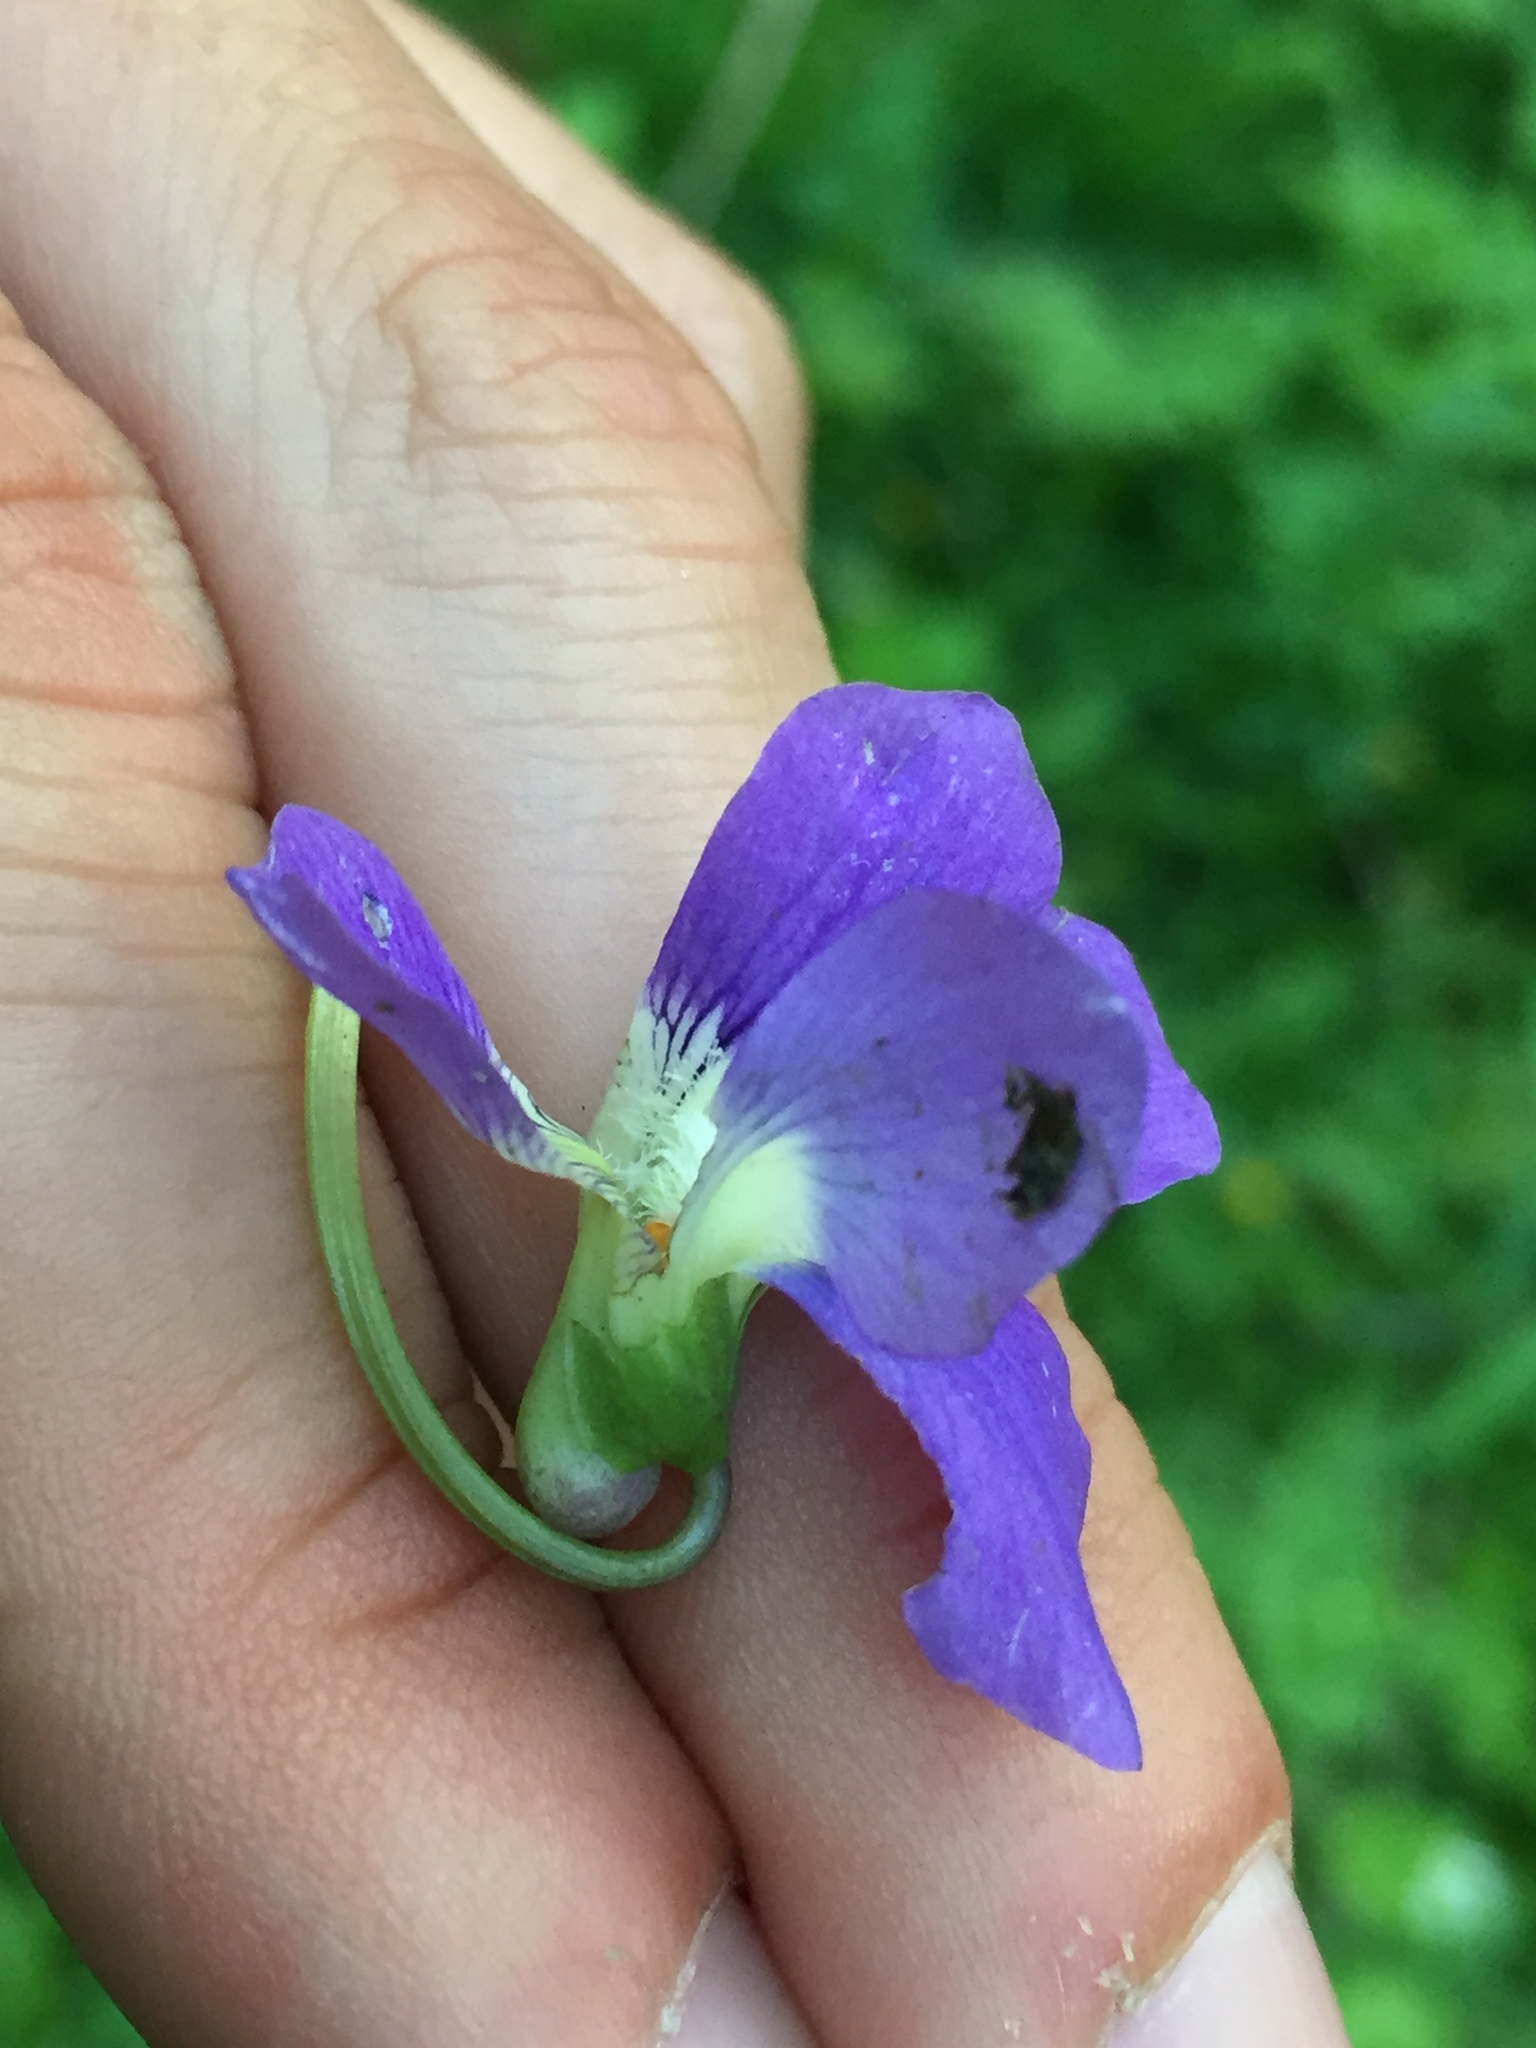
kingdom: Plantae
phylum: Tracheophyta
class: Magnoliopsida
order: Malpighiales
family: Violaceae
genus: Viola
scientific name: Viola sororia
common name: Dooryard violet
